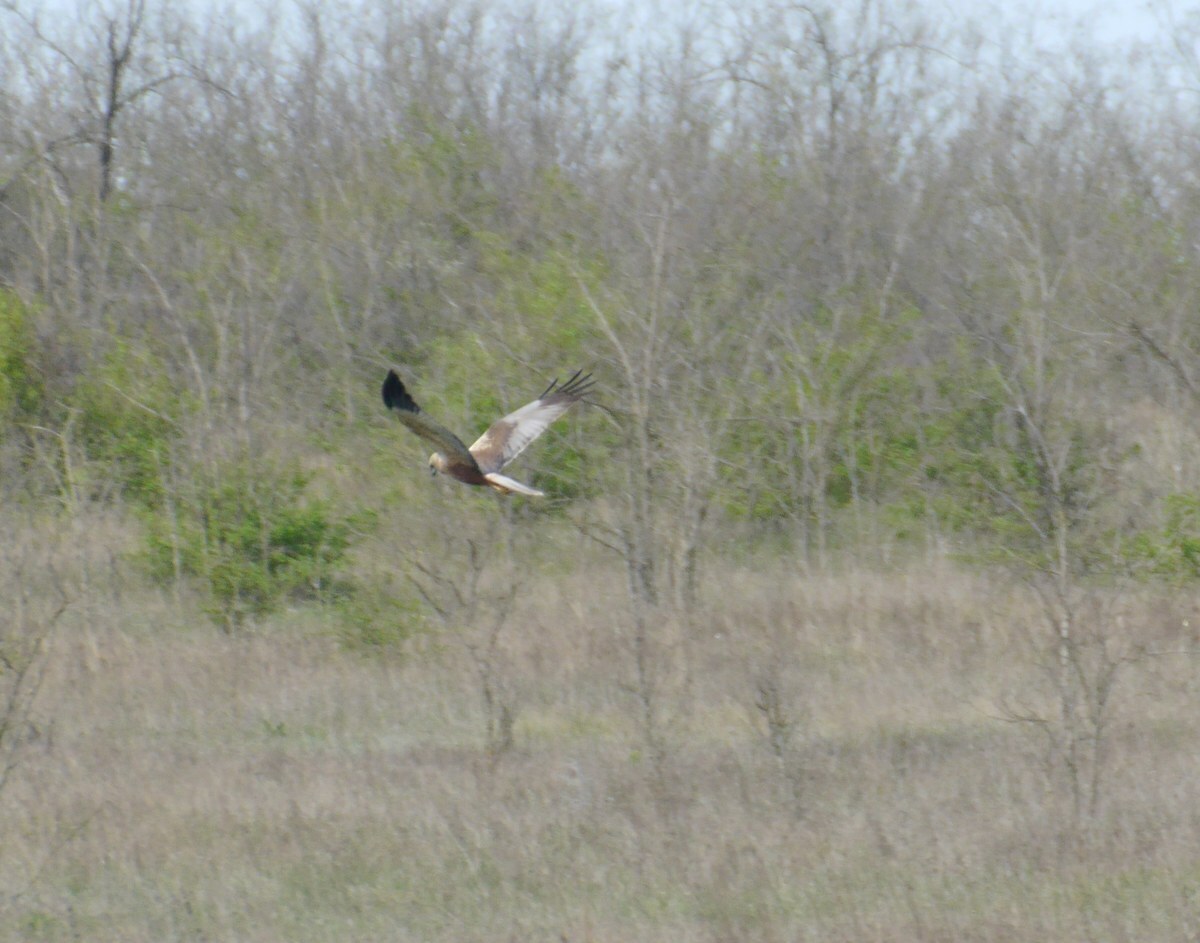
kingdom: Animalia
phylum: Chordata
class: Aves
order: Accipitriformes
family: Accipitridae
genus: Circus
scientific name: Circus aeruginosus
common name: Western marsh harrier
